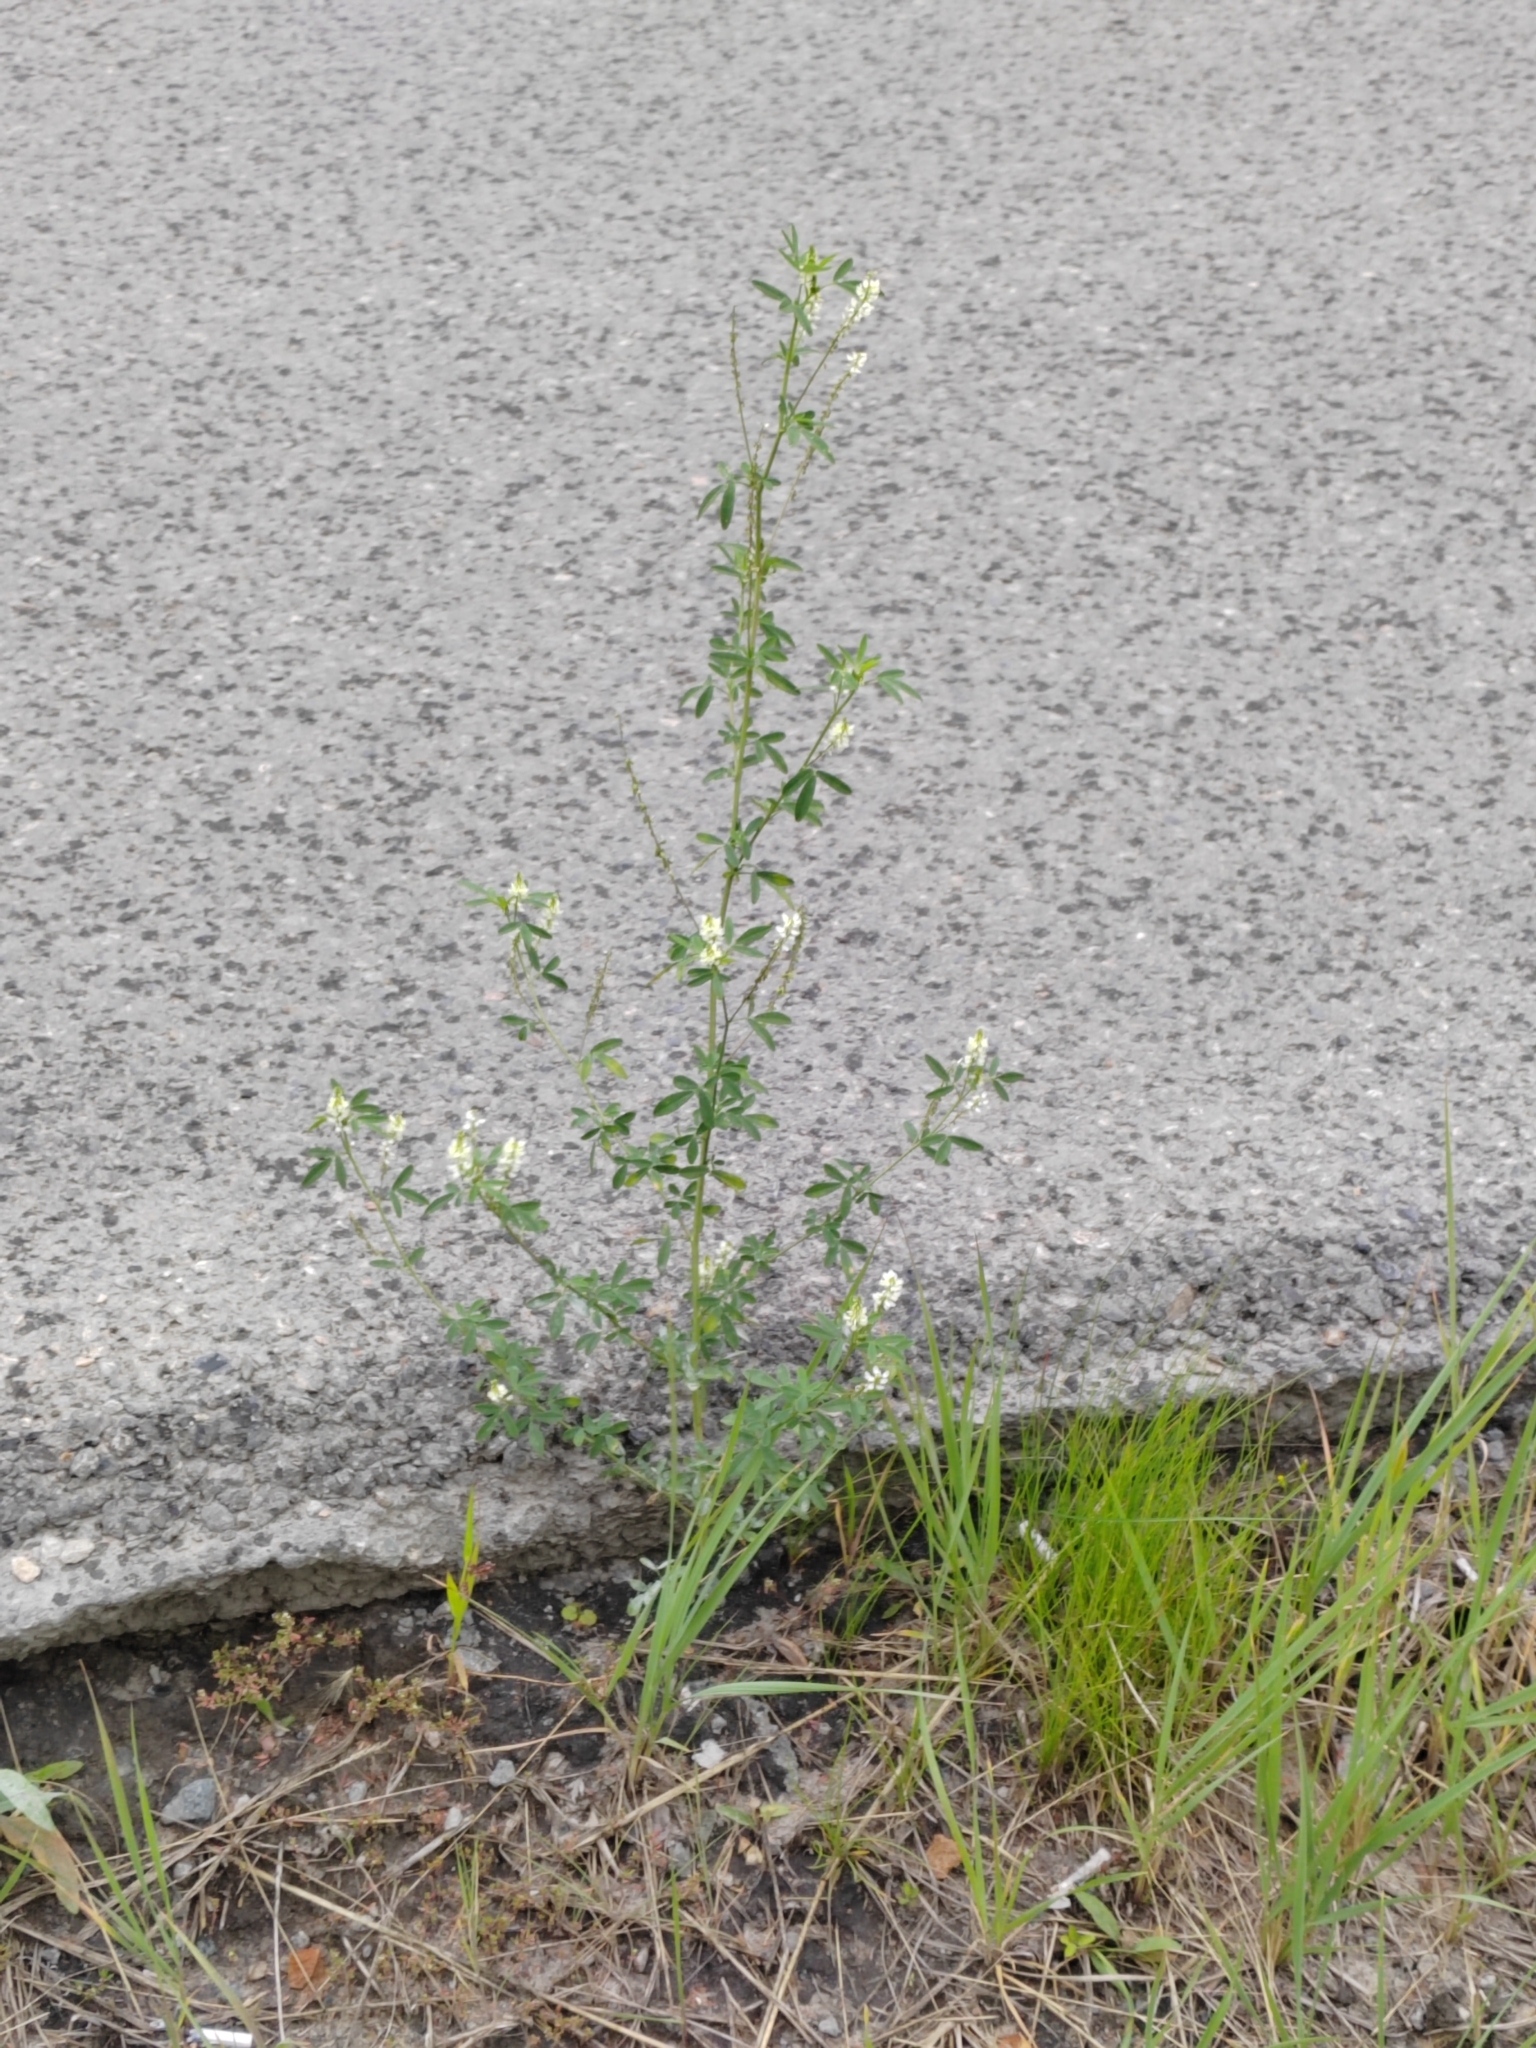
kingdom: Plantae
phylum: Tracheophyta
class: Magnoliopsida
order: Fabales
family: Fabaceae
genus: Melilotus
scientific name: Melilotus albus
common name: White melilot
